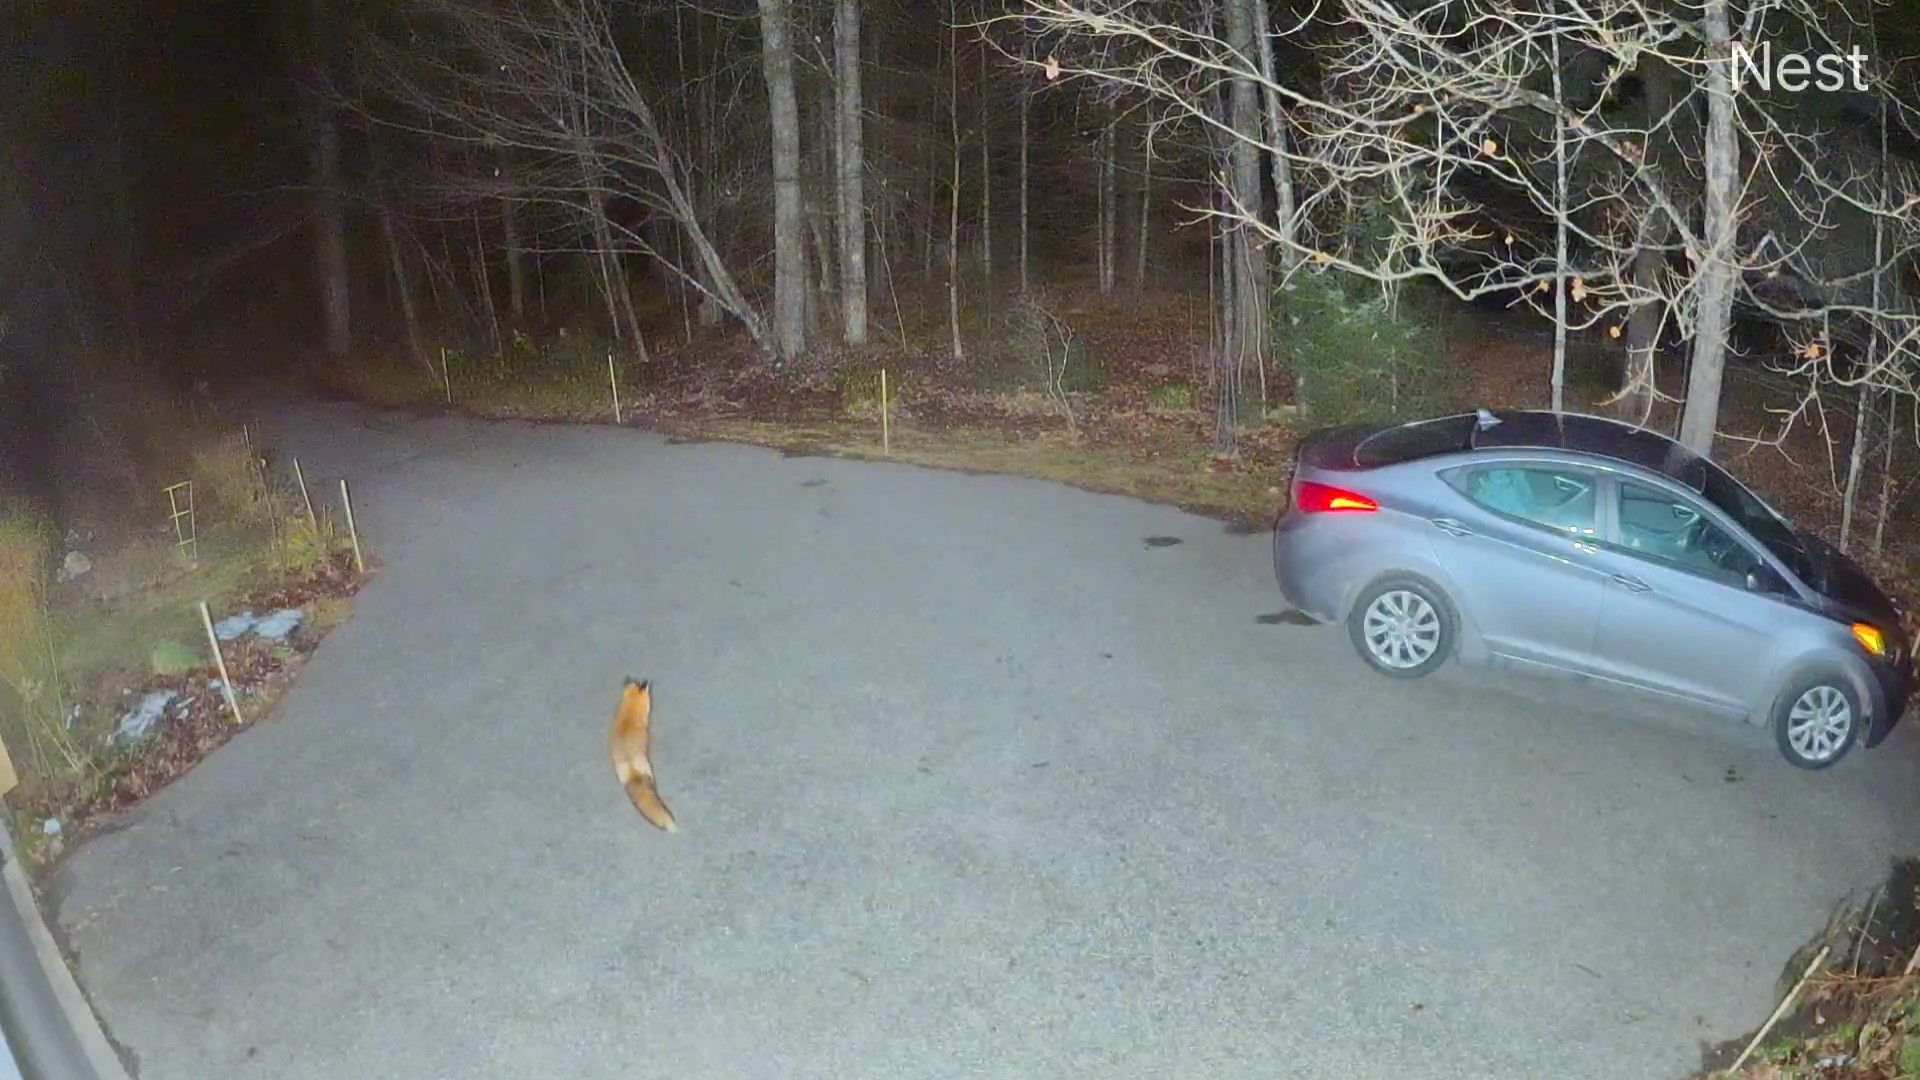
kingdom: Animalia
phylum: Chordata
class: Mammalia
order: Carnivora
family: Canidae
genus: Vulpes
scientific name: Vulpes vulpes
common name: Red fox
